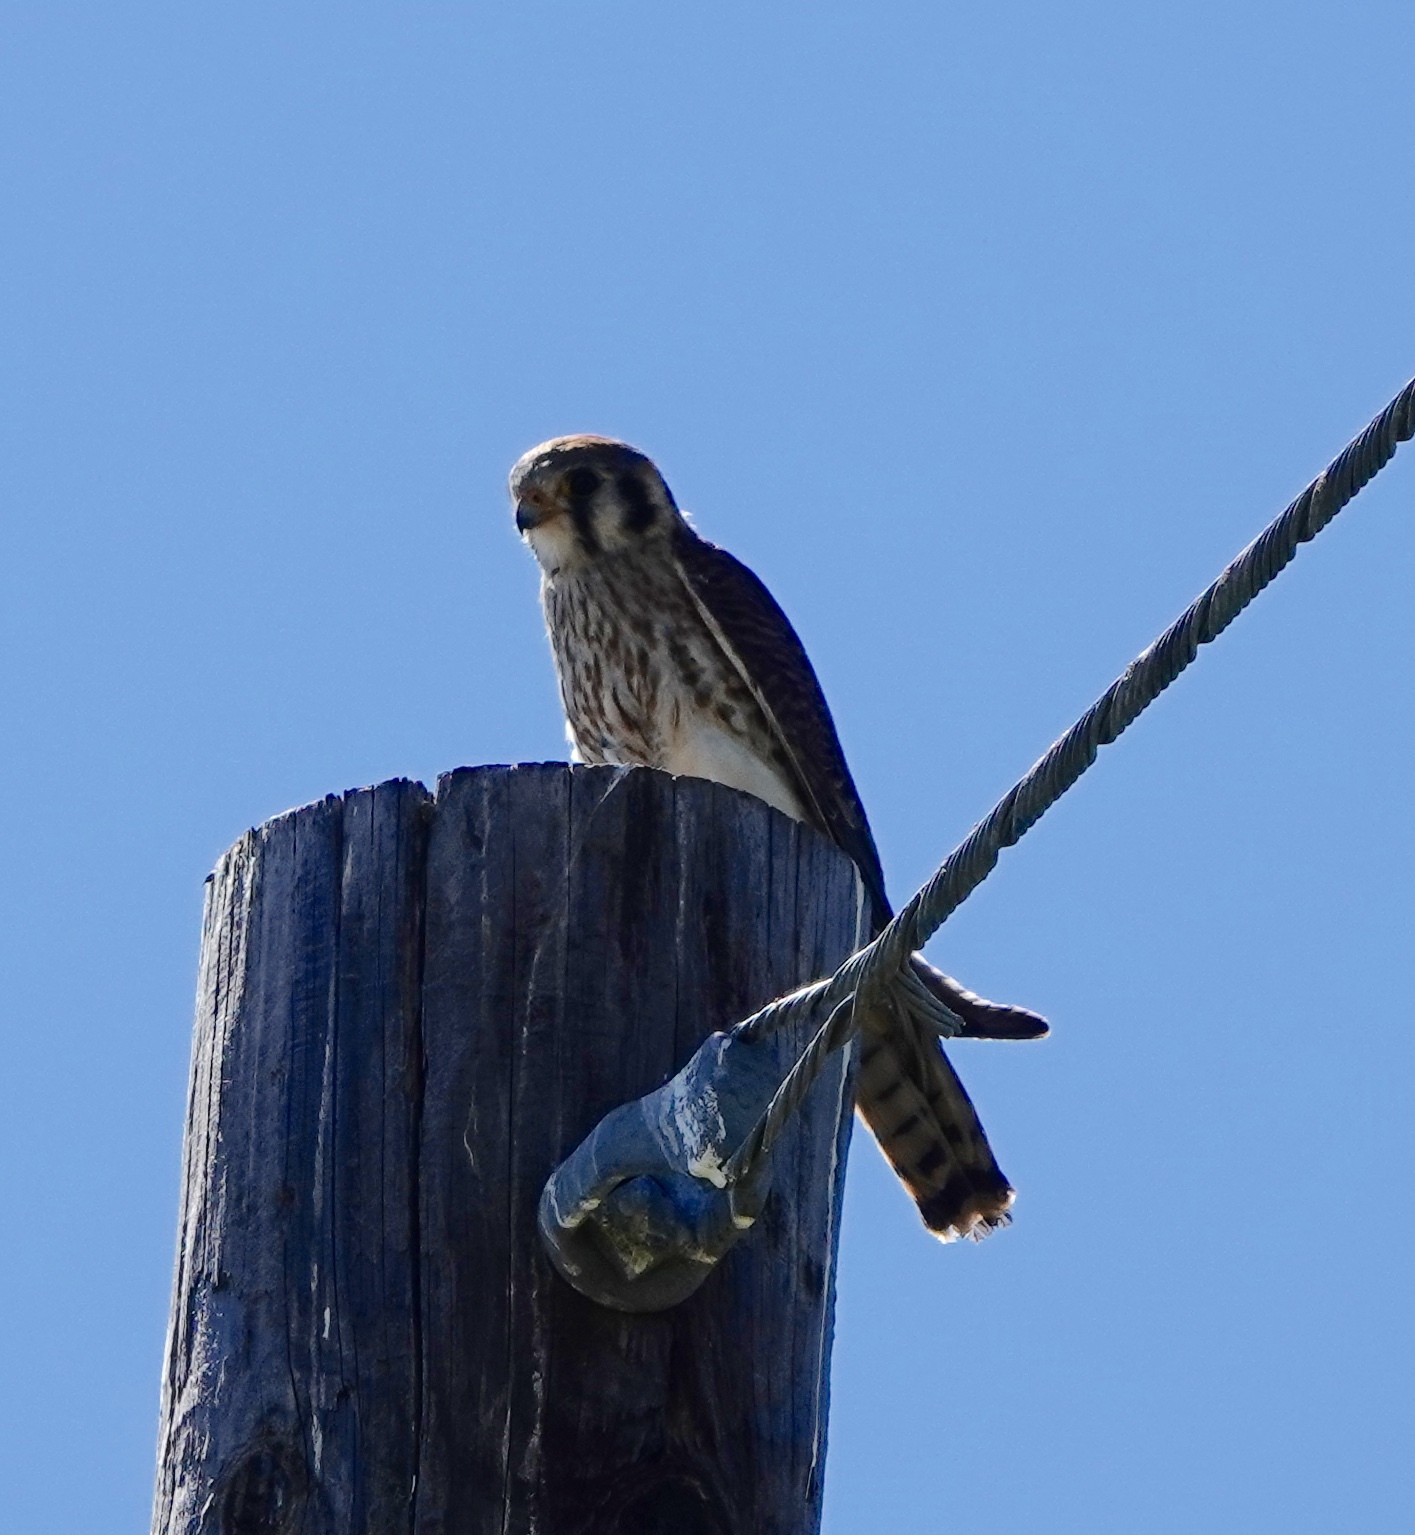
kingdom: Animalia
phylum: Chordata
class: Aves
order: Falconiformes
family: Falconidae
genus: Falco
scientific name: Falco sparverius
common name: American kestrel
